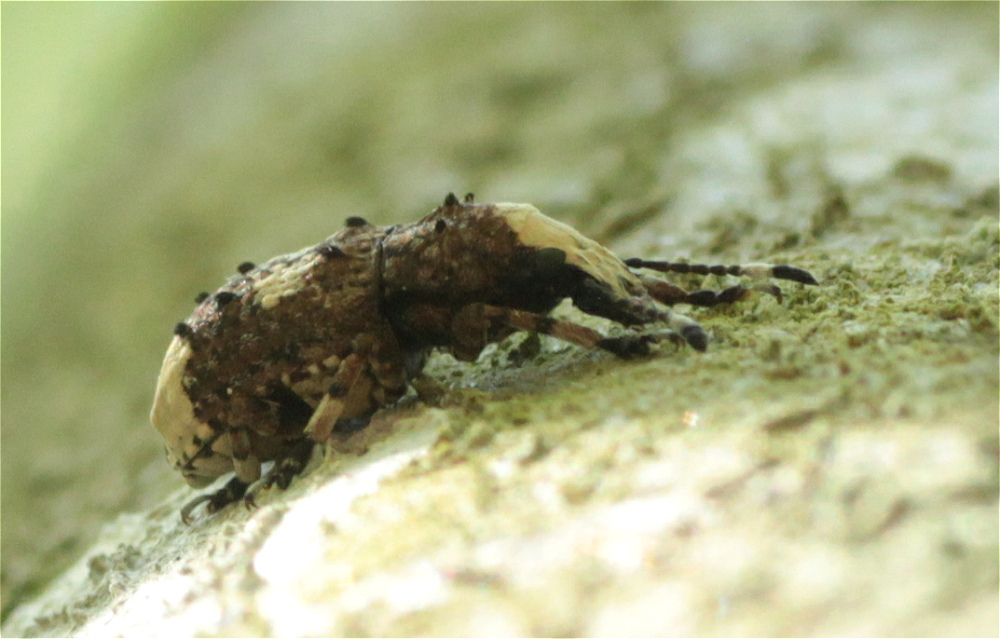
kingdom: Animalia
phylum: Arthropoda
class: Insecta
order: Coleoptera
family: Anthribidae
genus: Platystomos
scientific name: Platystomos albinus
